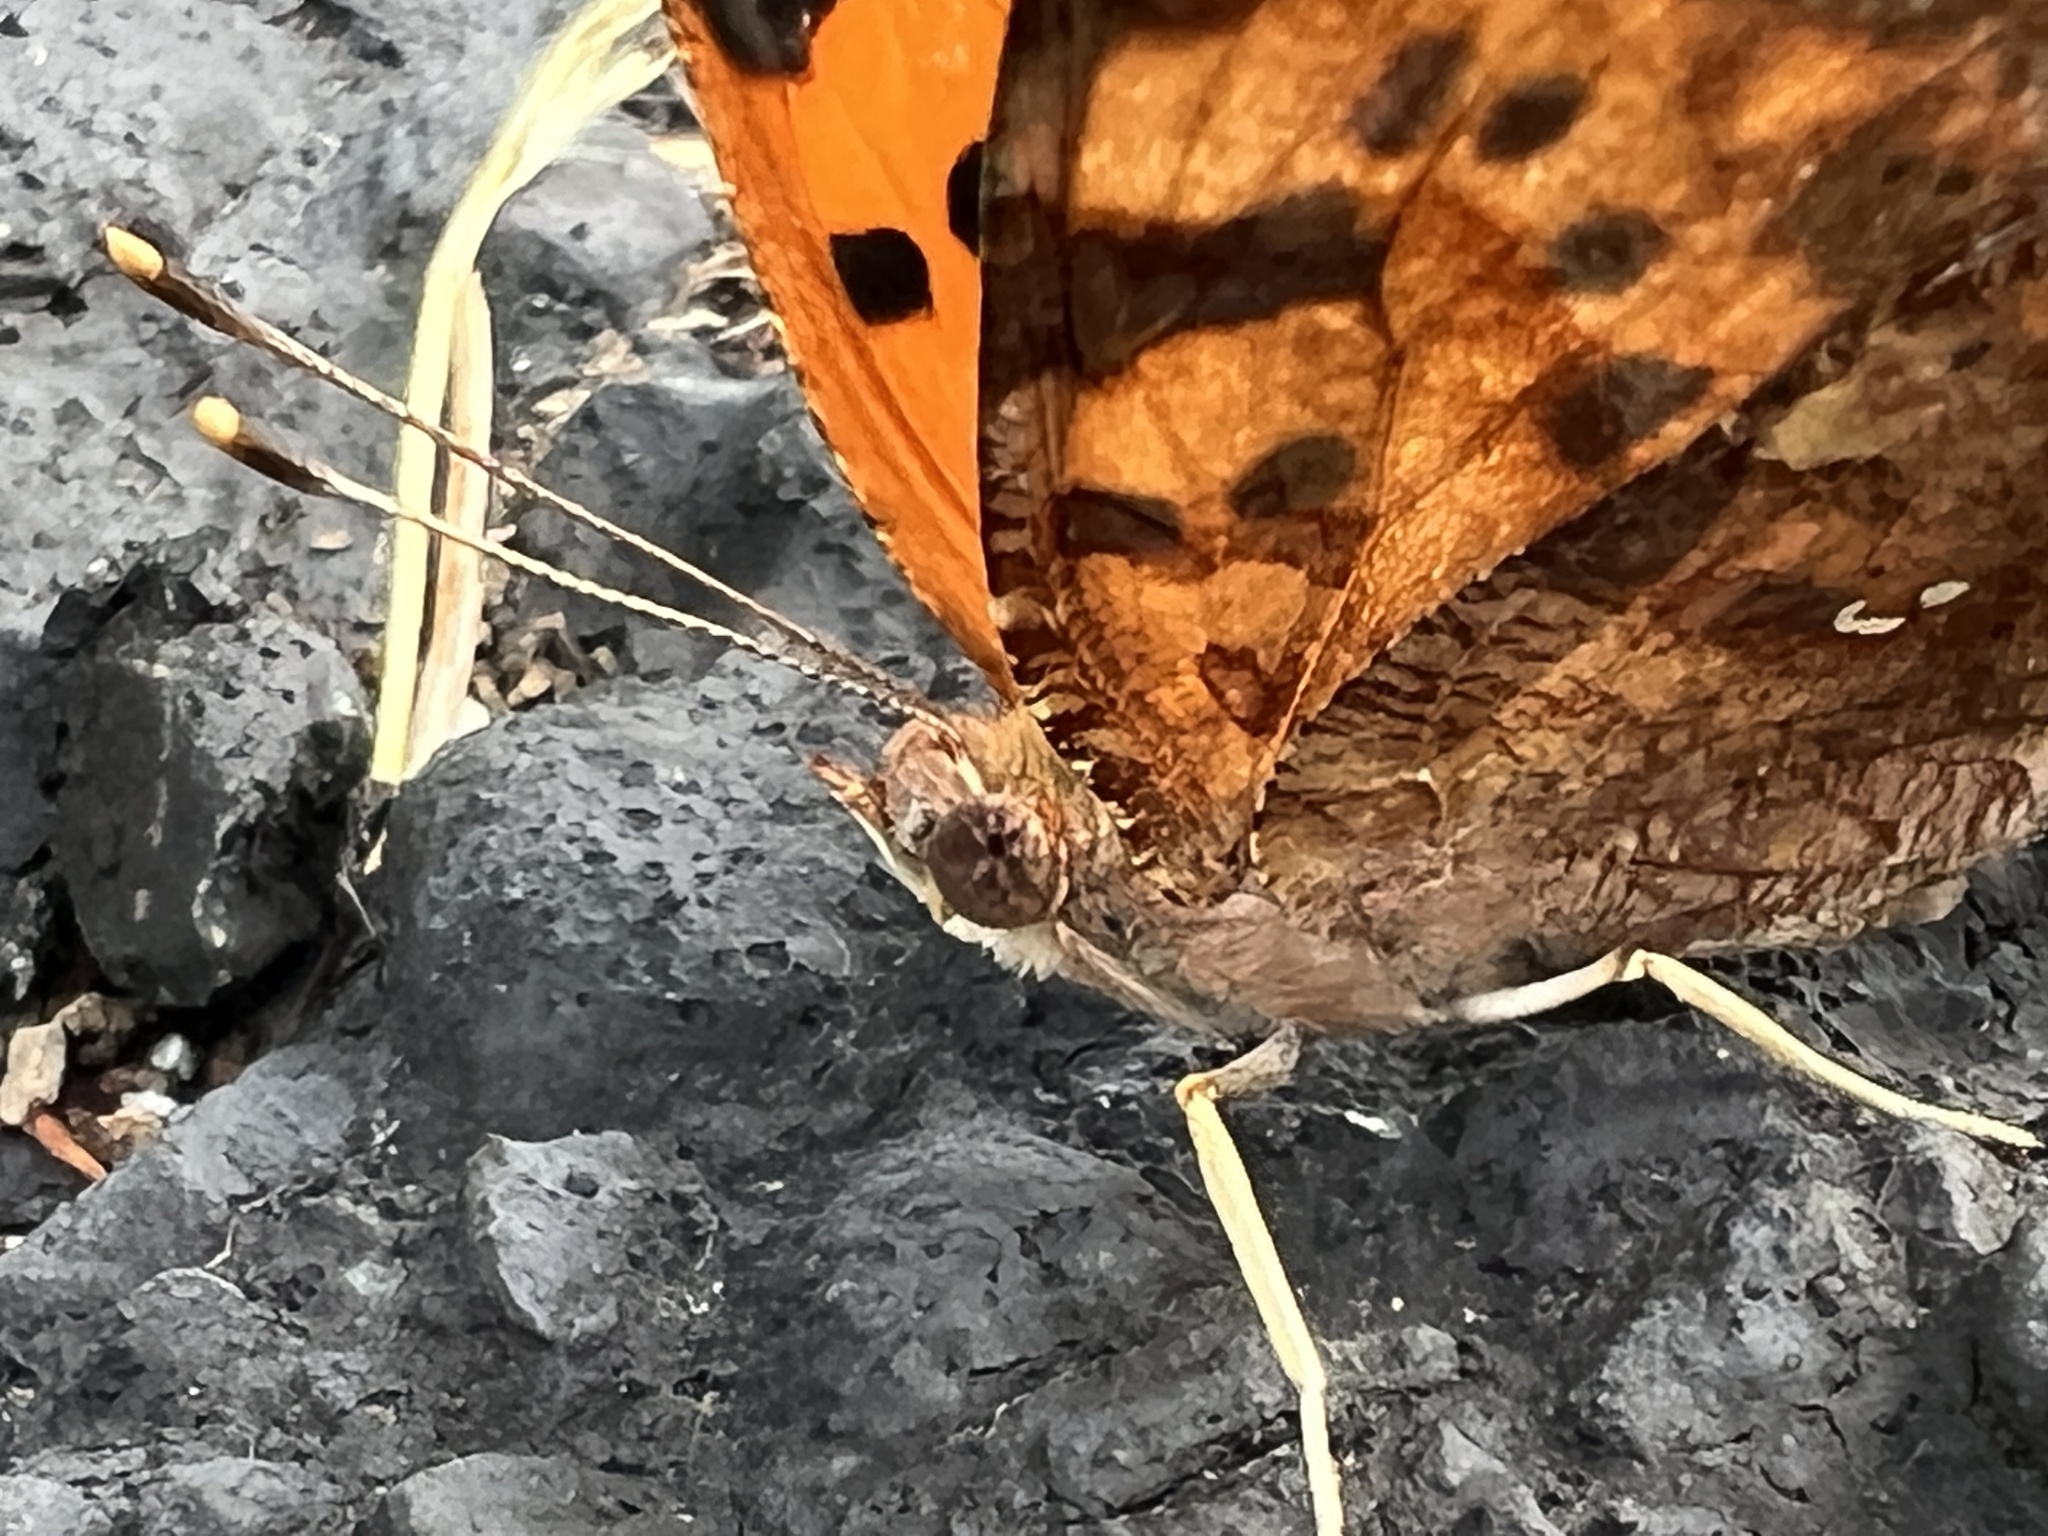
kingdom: Animalia
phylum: Arthropoda
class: Insecta
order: Lepidoptera
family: Nymphalidae
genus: Polygonia
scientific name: Polygonia interrogationis
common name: Question mark
